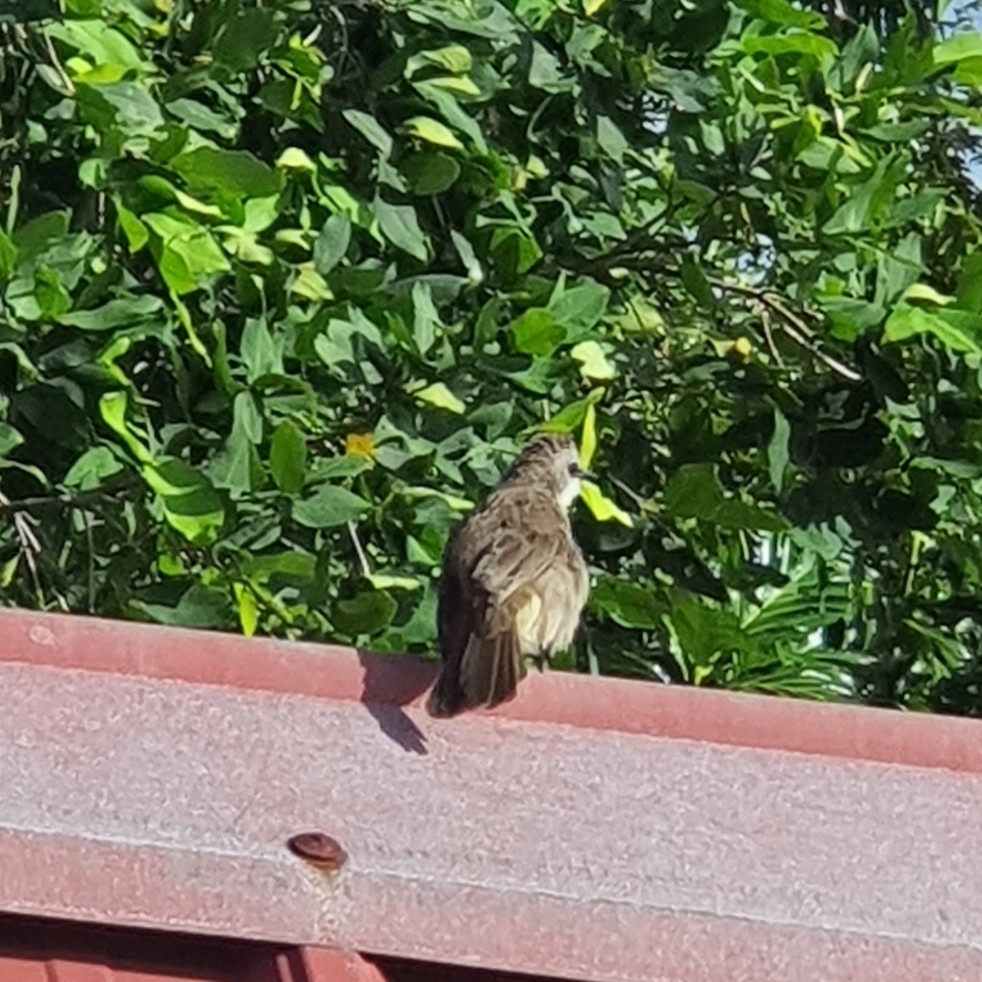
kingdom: Animalia
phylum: Chordata
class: Aves
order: Passeriformes
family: Pycnonotidae
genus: Pycnonotus
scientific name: Pycnonotus goiavier
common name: Yellow-vented bulbul
